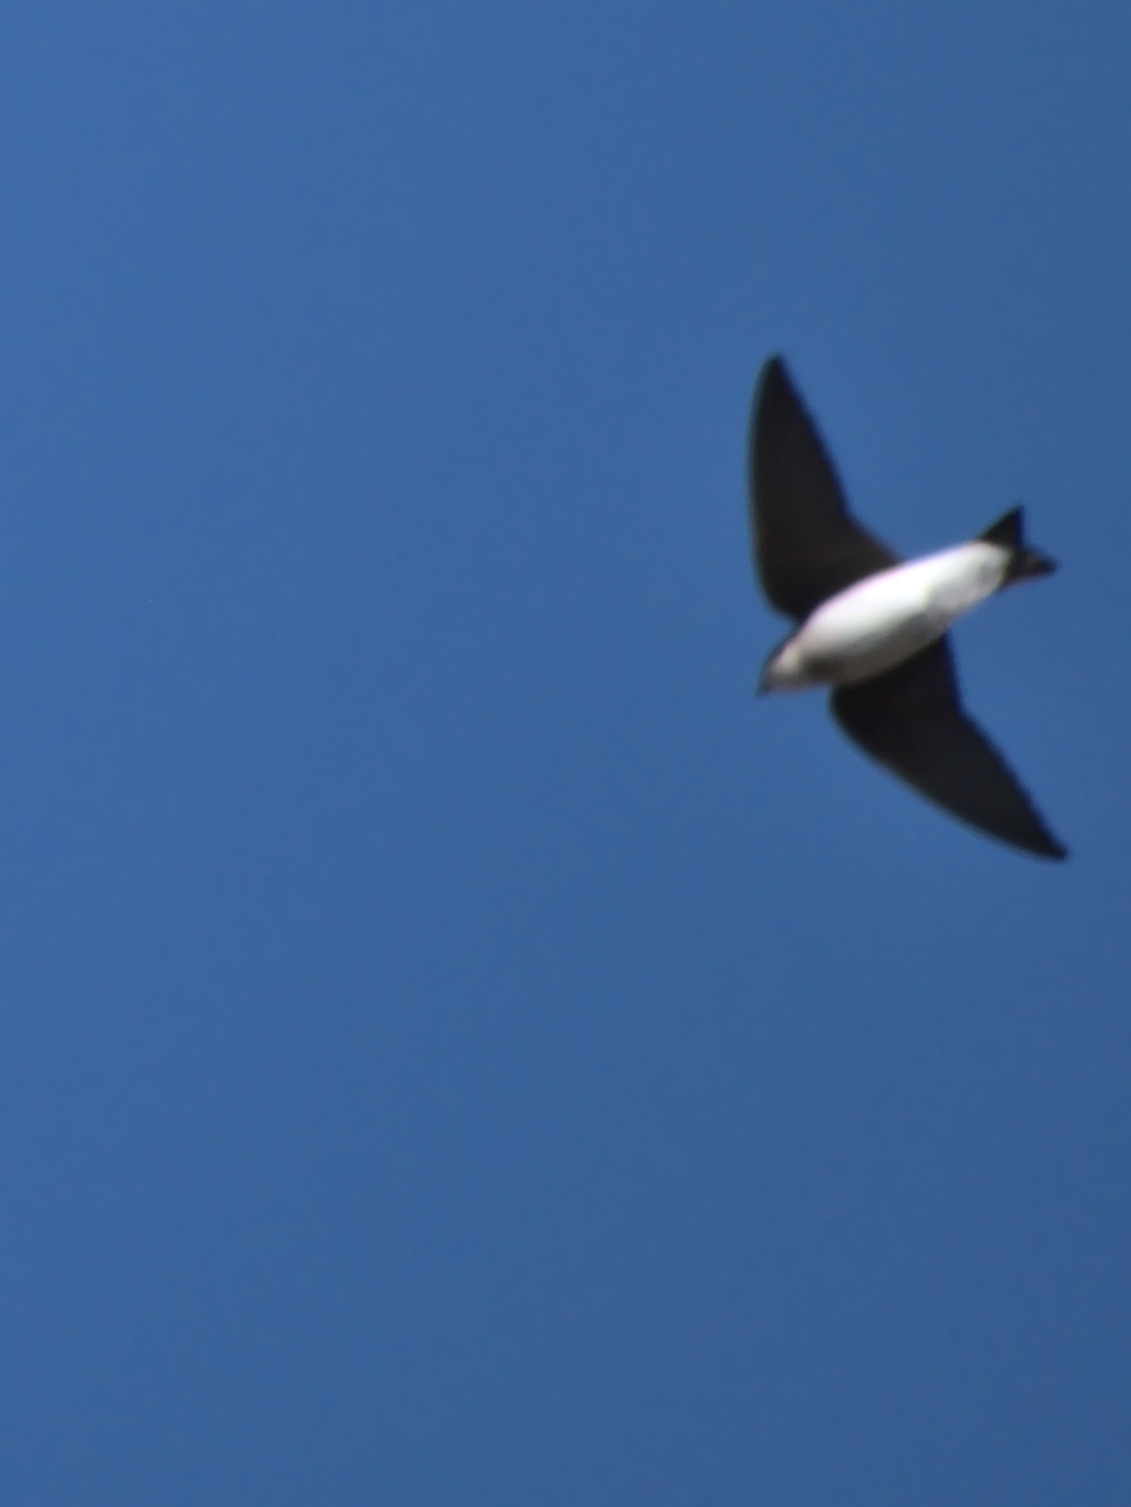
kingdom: Animalia
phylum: Chordata
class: Aves
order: Passeriformes
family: Hirundinidae
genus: Tachycineta
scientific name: Tachycineta bicolor
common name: Tree swallow
